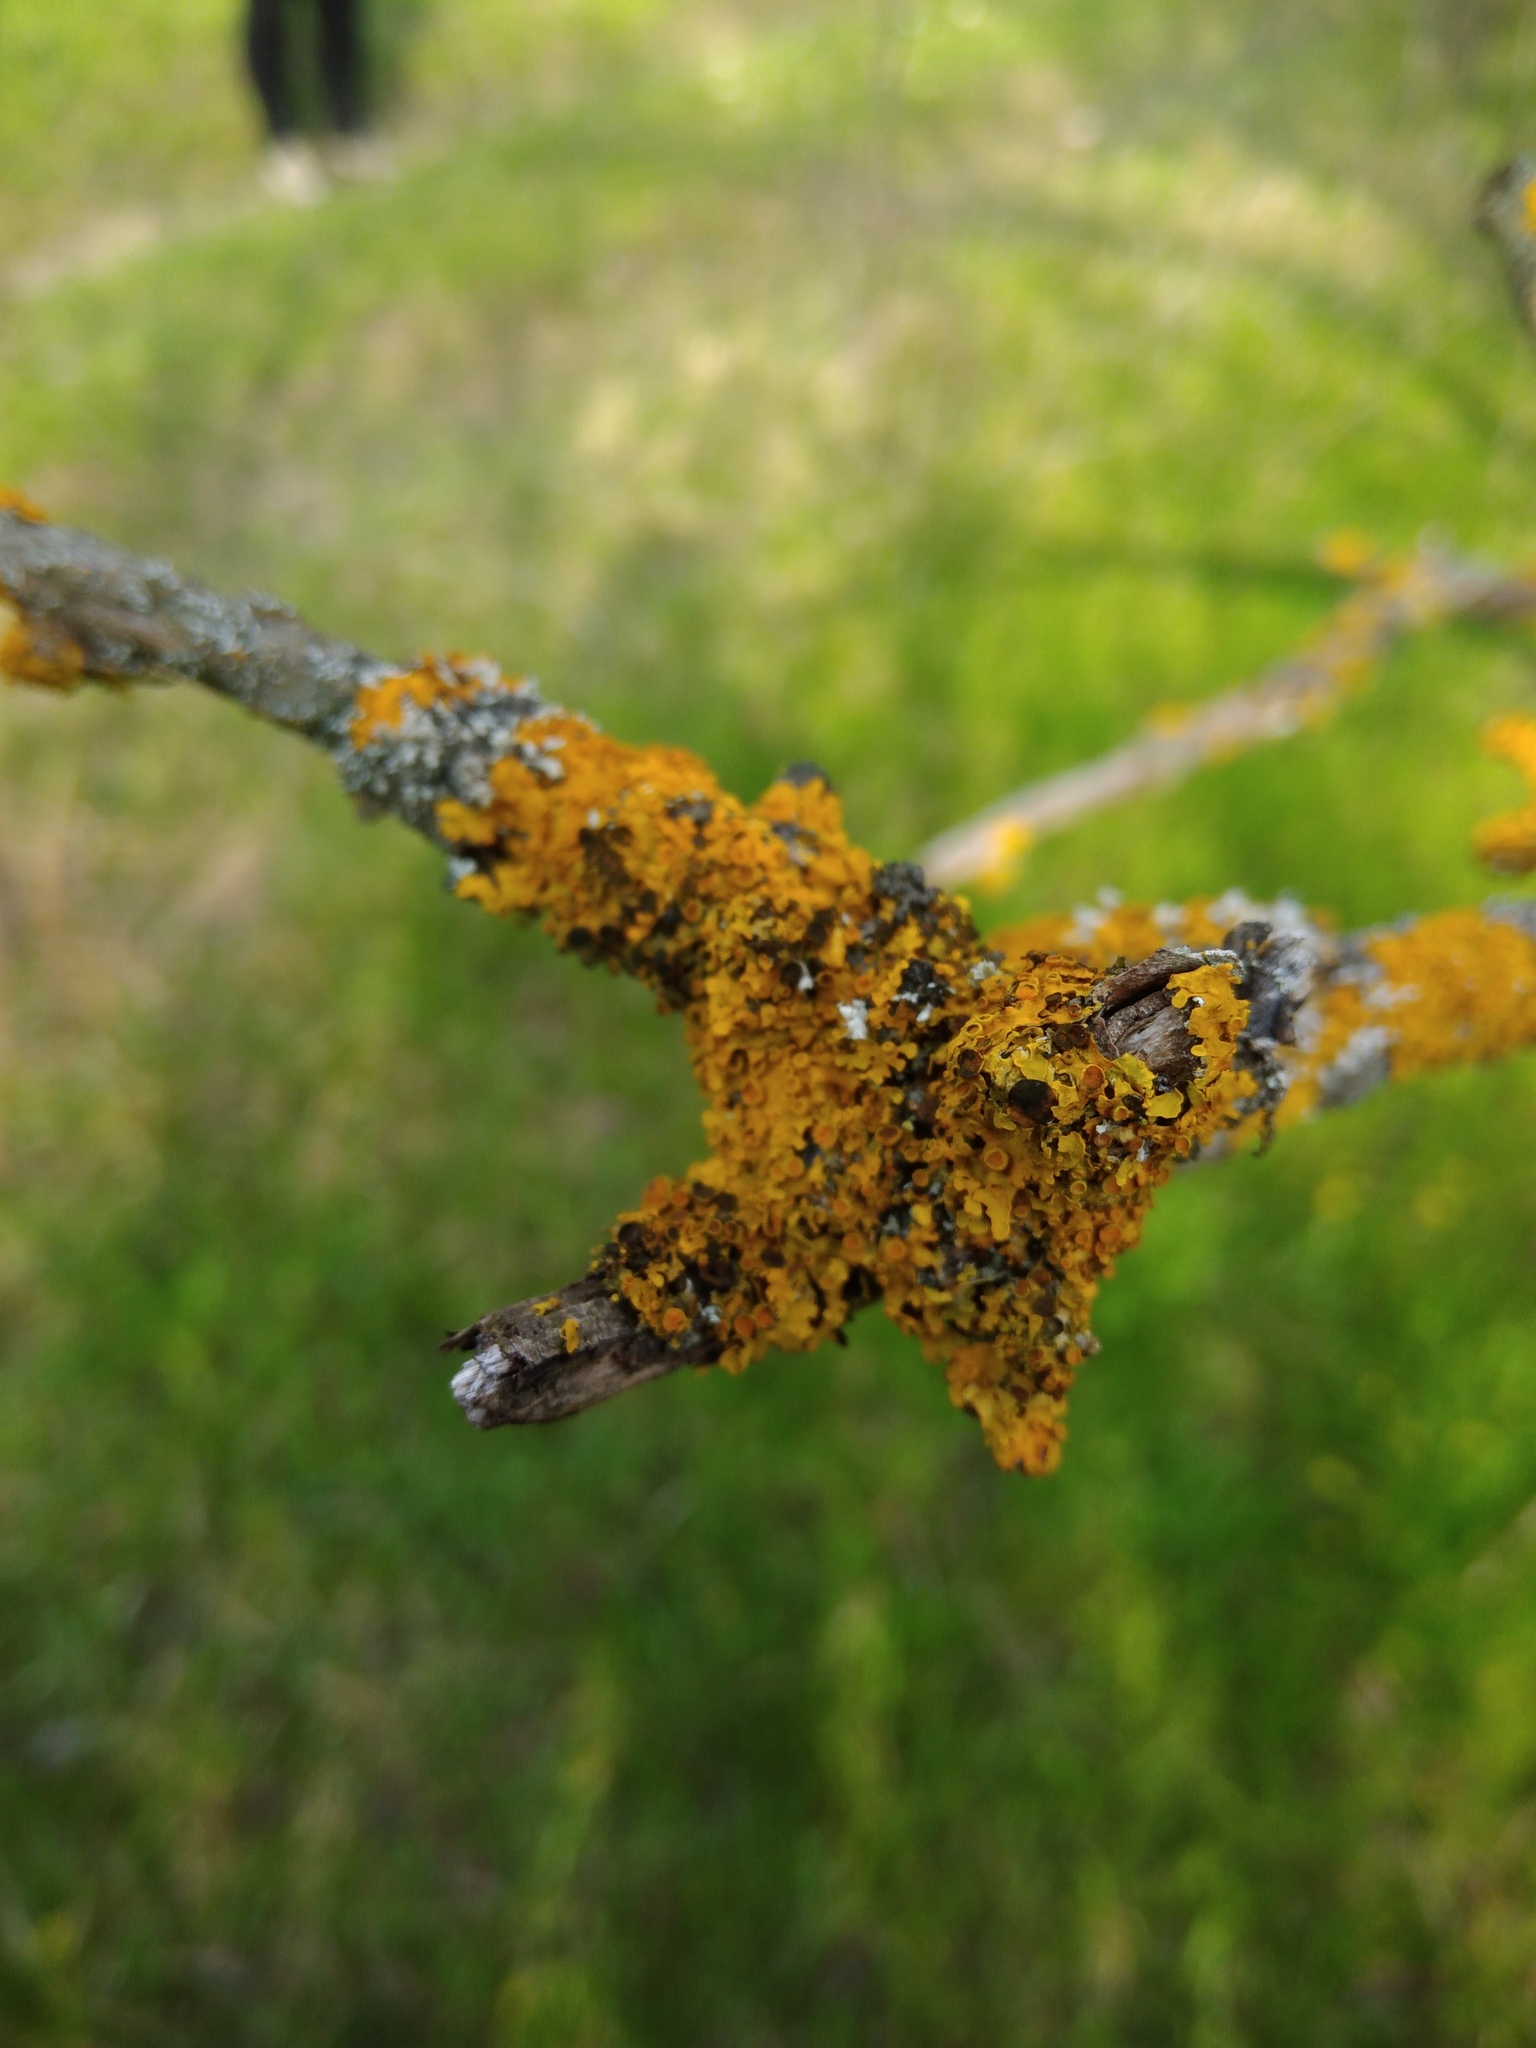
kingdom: Fungi
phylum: Ascomycota
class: Dothideomycetes
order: Mycosphaerellales
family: Teratosphaeriaceae
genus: Xanthoriicola
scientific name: Xanthoriicola physciae
